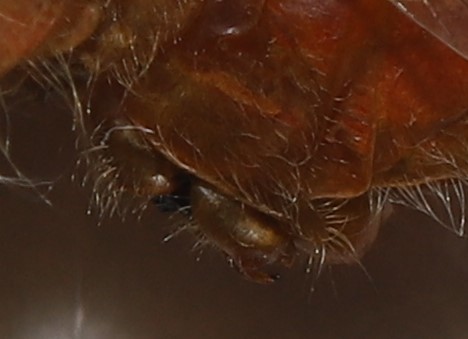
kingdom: Animalia
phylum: Arthropoda
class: Insecta
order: Odonata
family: Libellulidae
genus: Sympetrum
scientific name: Sympetrum obtrusum
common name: White-faced meadowhawk
